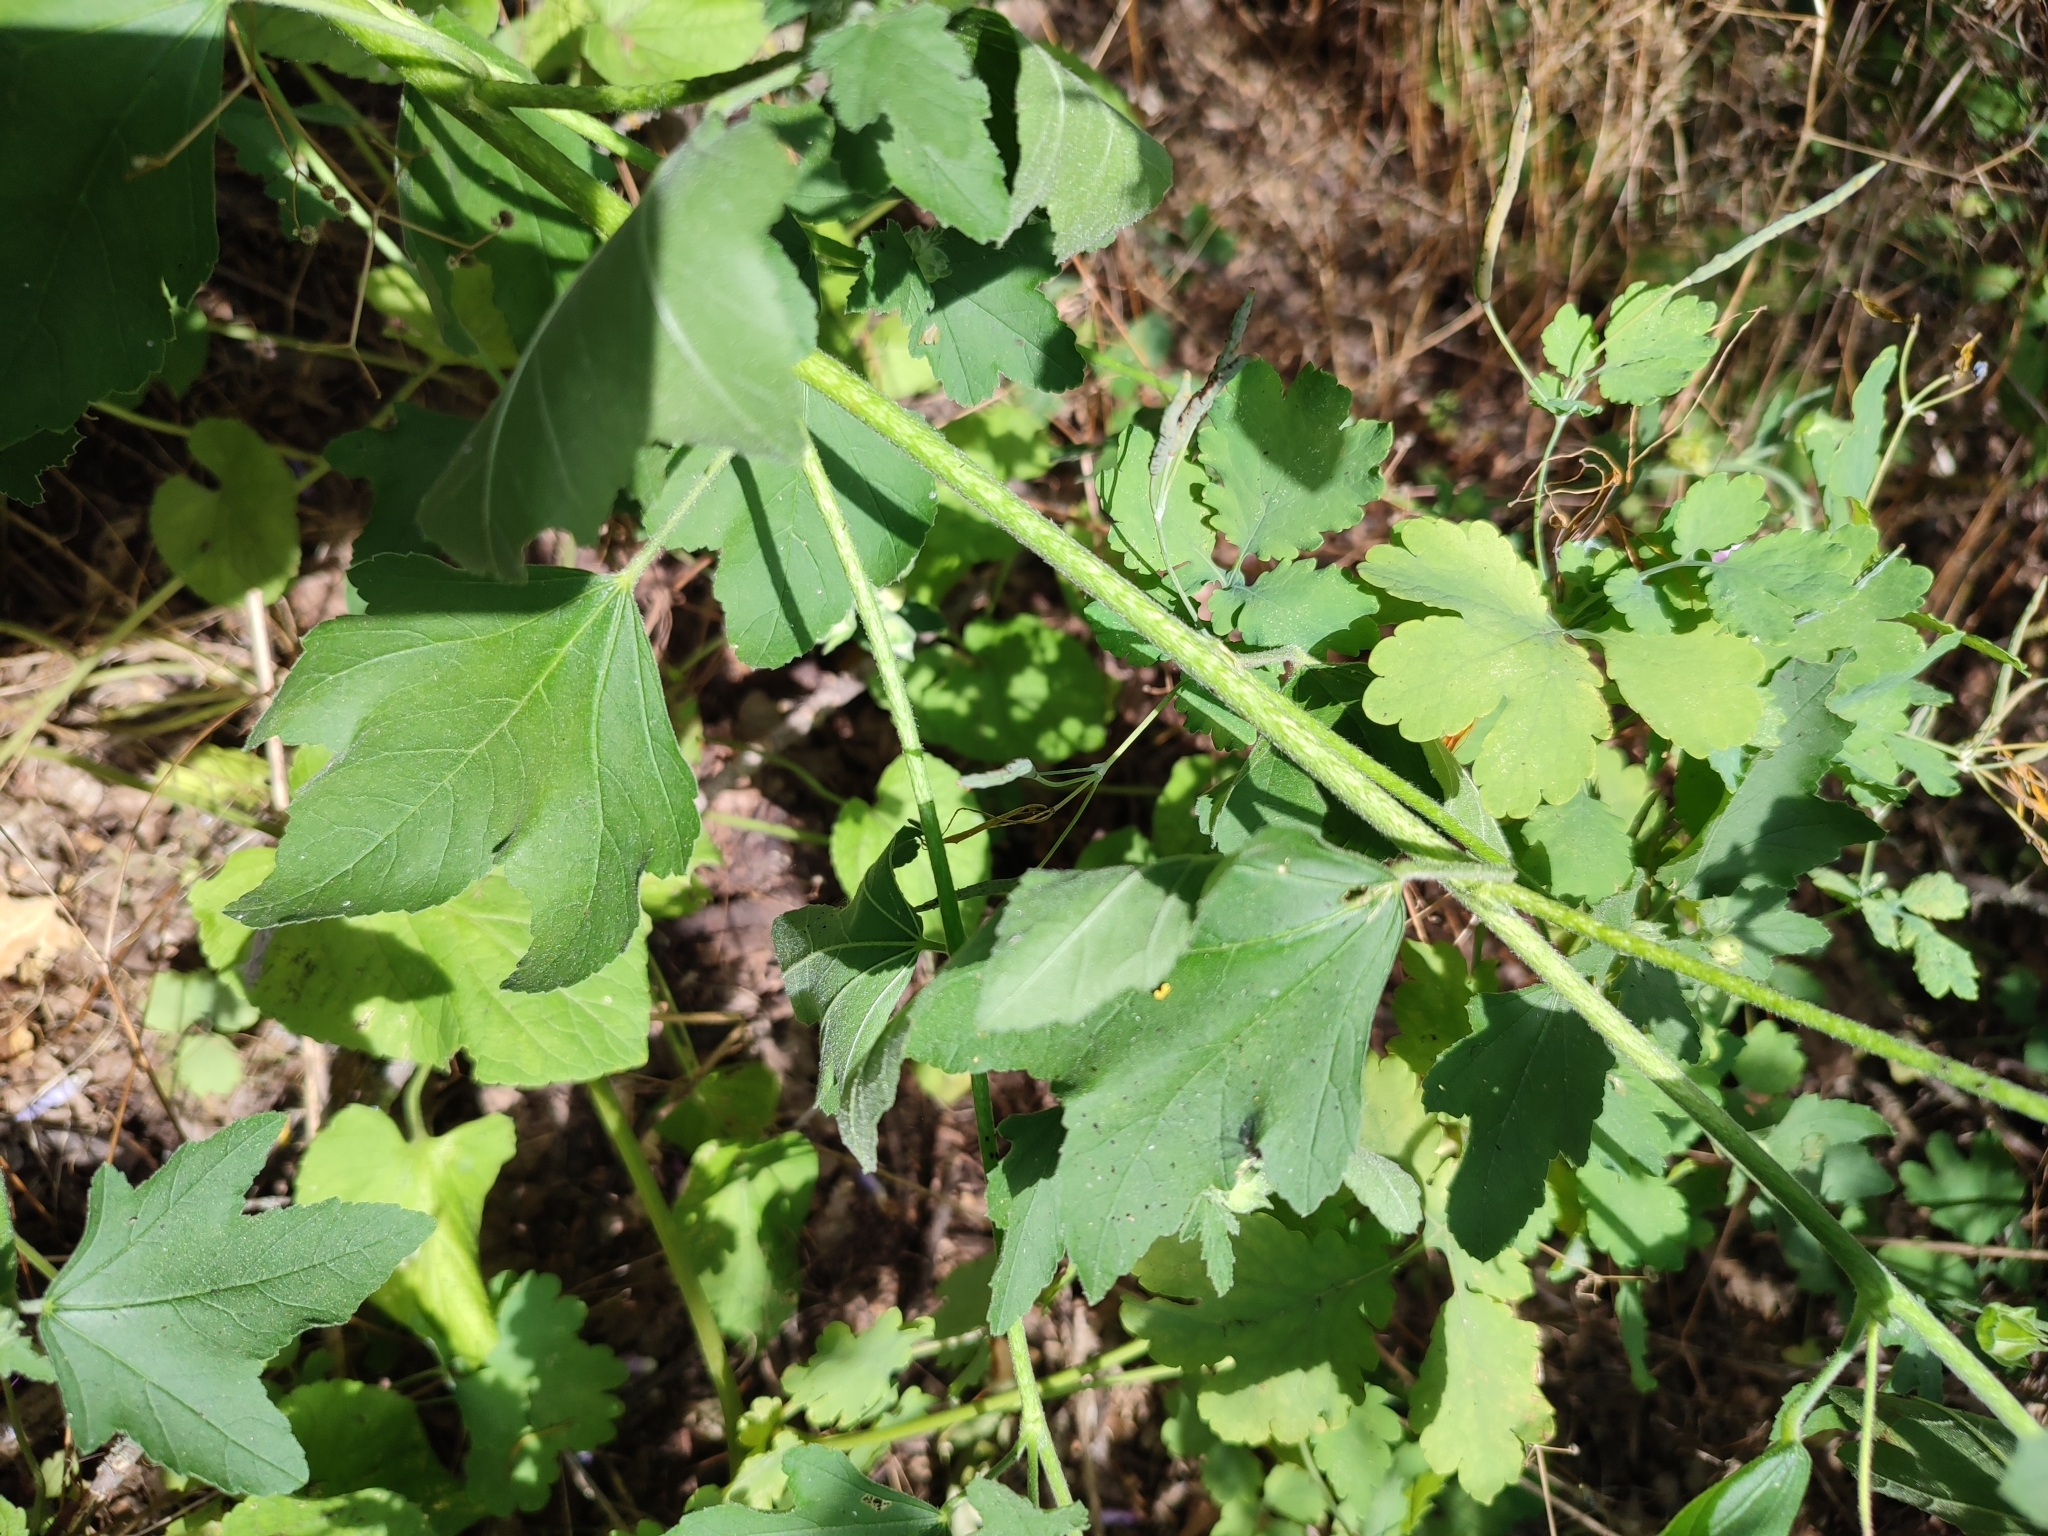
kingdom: Plantae
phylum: Tracheophyta
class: Magnoliopsida
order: Malvales
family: Malvaceae
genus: Malva
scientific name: Malva thuringiaca
